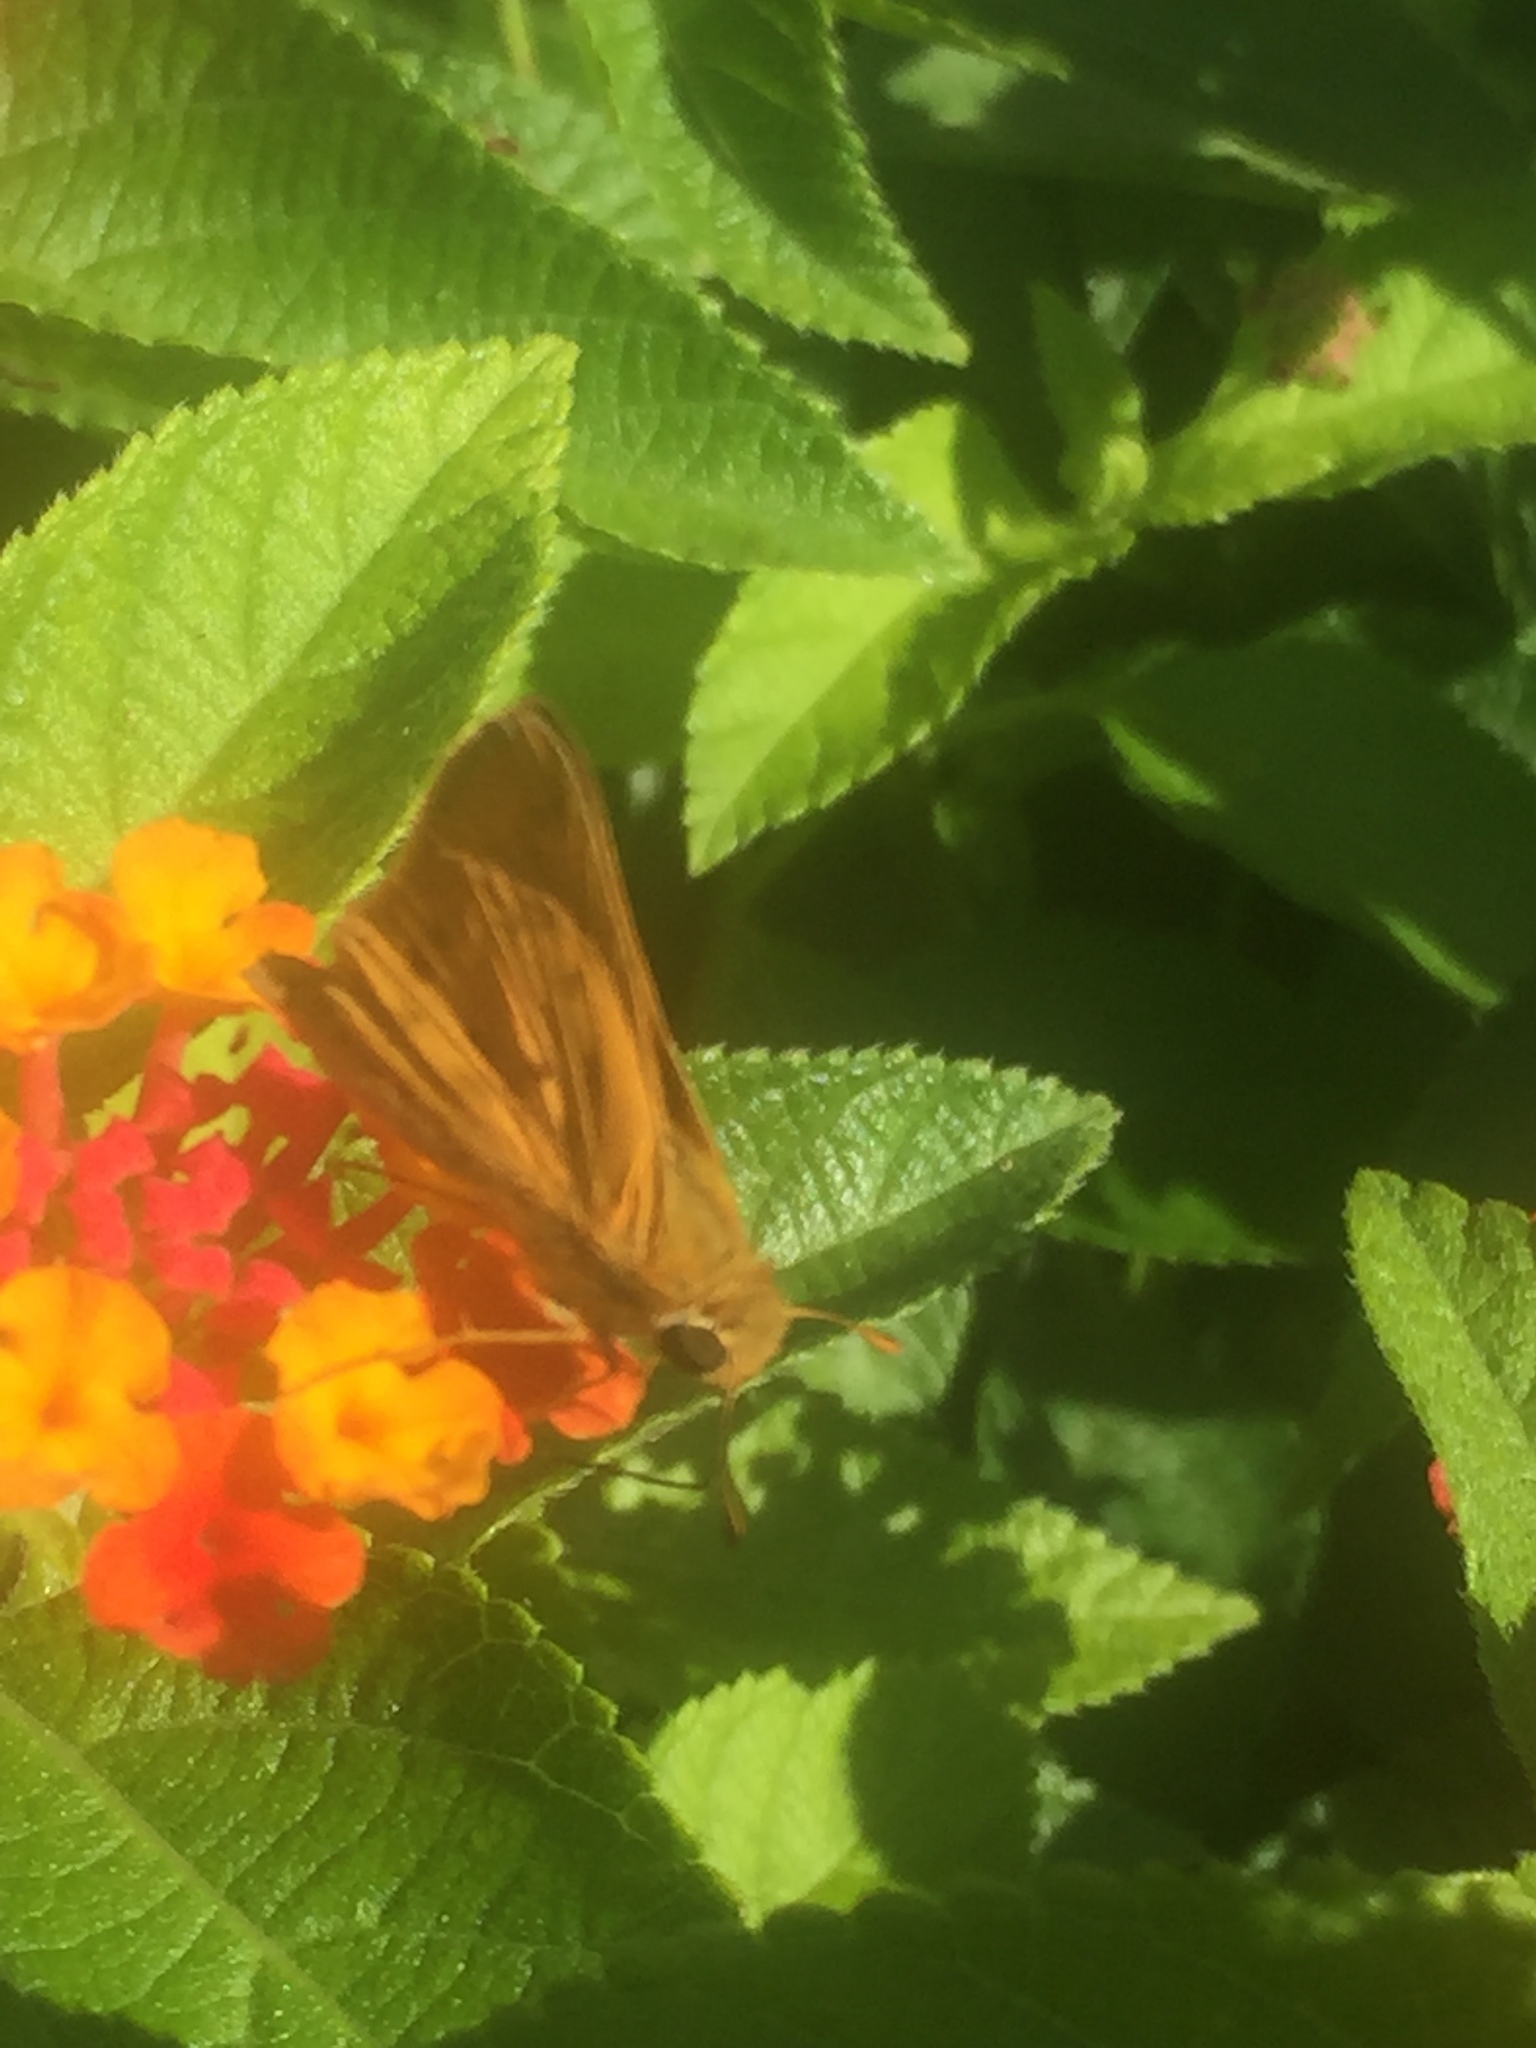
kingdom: Animalia
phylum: Arthropoda
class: Insecta
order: Lepidoptera
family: Hesperiidae
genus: Hylephila
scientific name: Hylephila phyleus
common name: Fiery skipper
